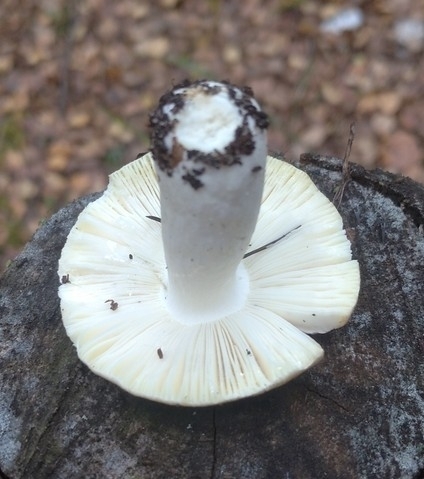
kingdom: Fungi
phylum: Basidiomycota
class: Agaricomycetes
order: Russulales
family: Russulaceae
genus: Russula
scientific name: Russula aeruginea
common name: Green brittlegill
